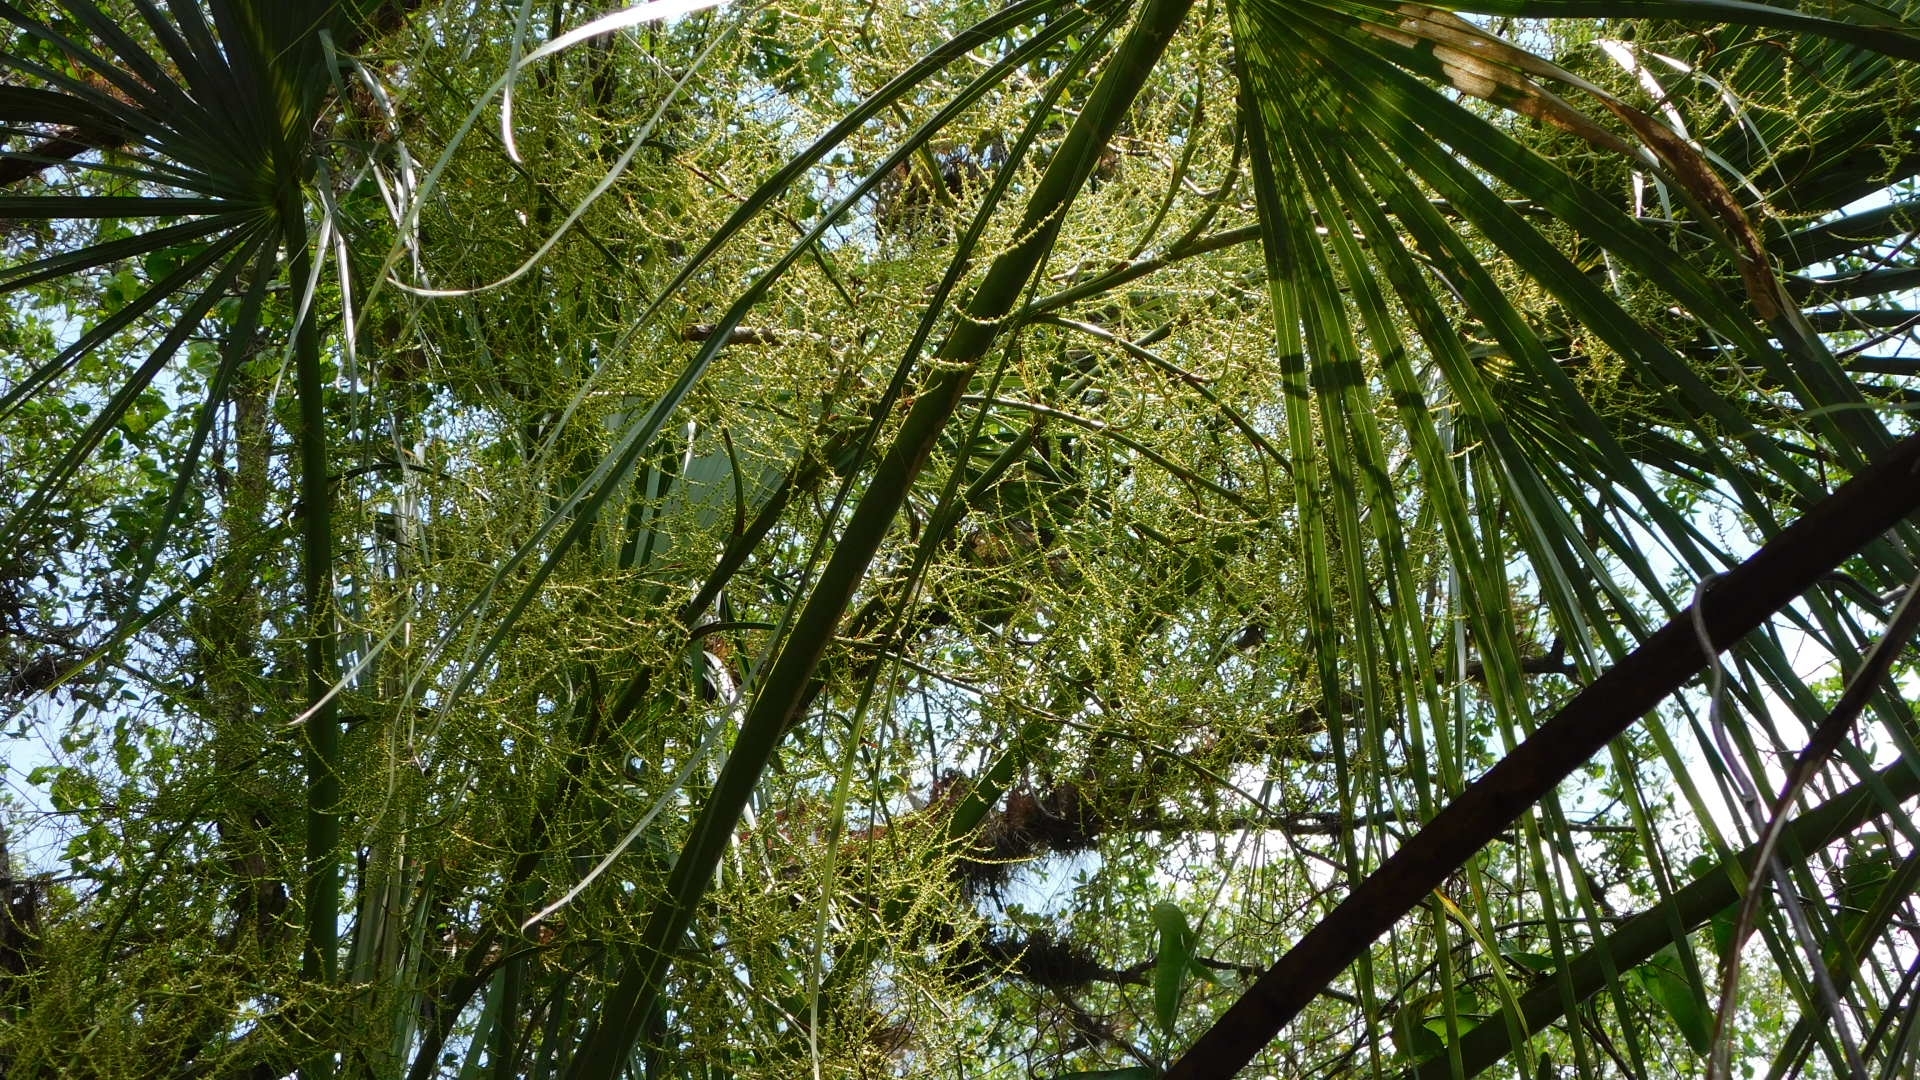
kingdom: Plantae
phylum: Tracheophyta
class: Liliopsida
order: Arecales
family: Arecaceae
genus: Sabal
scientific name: Sabal palmetto
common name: Blue palmetto
